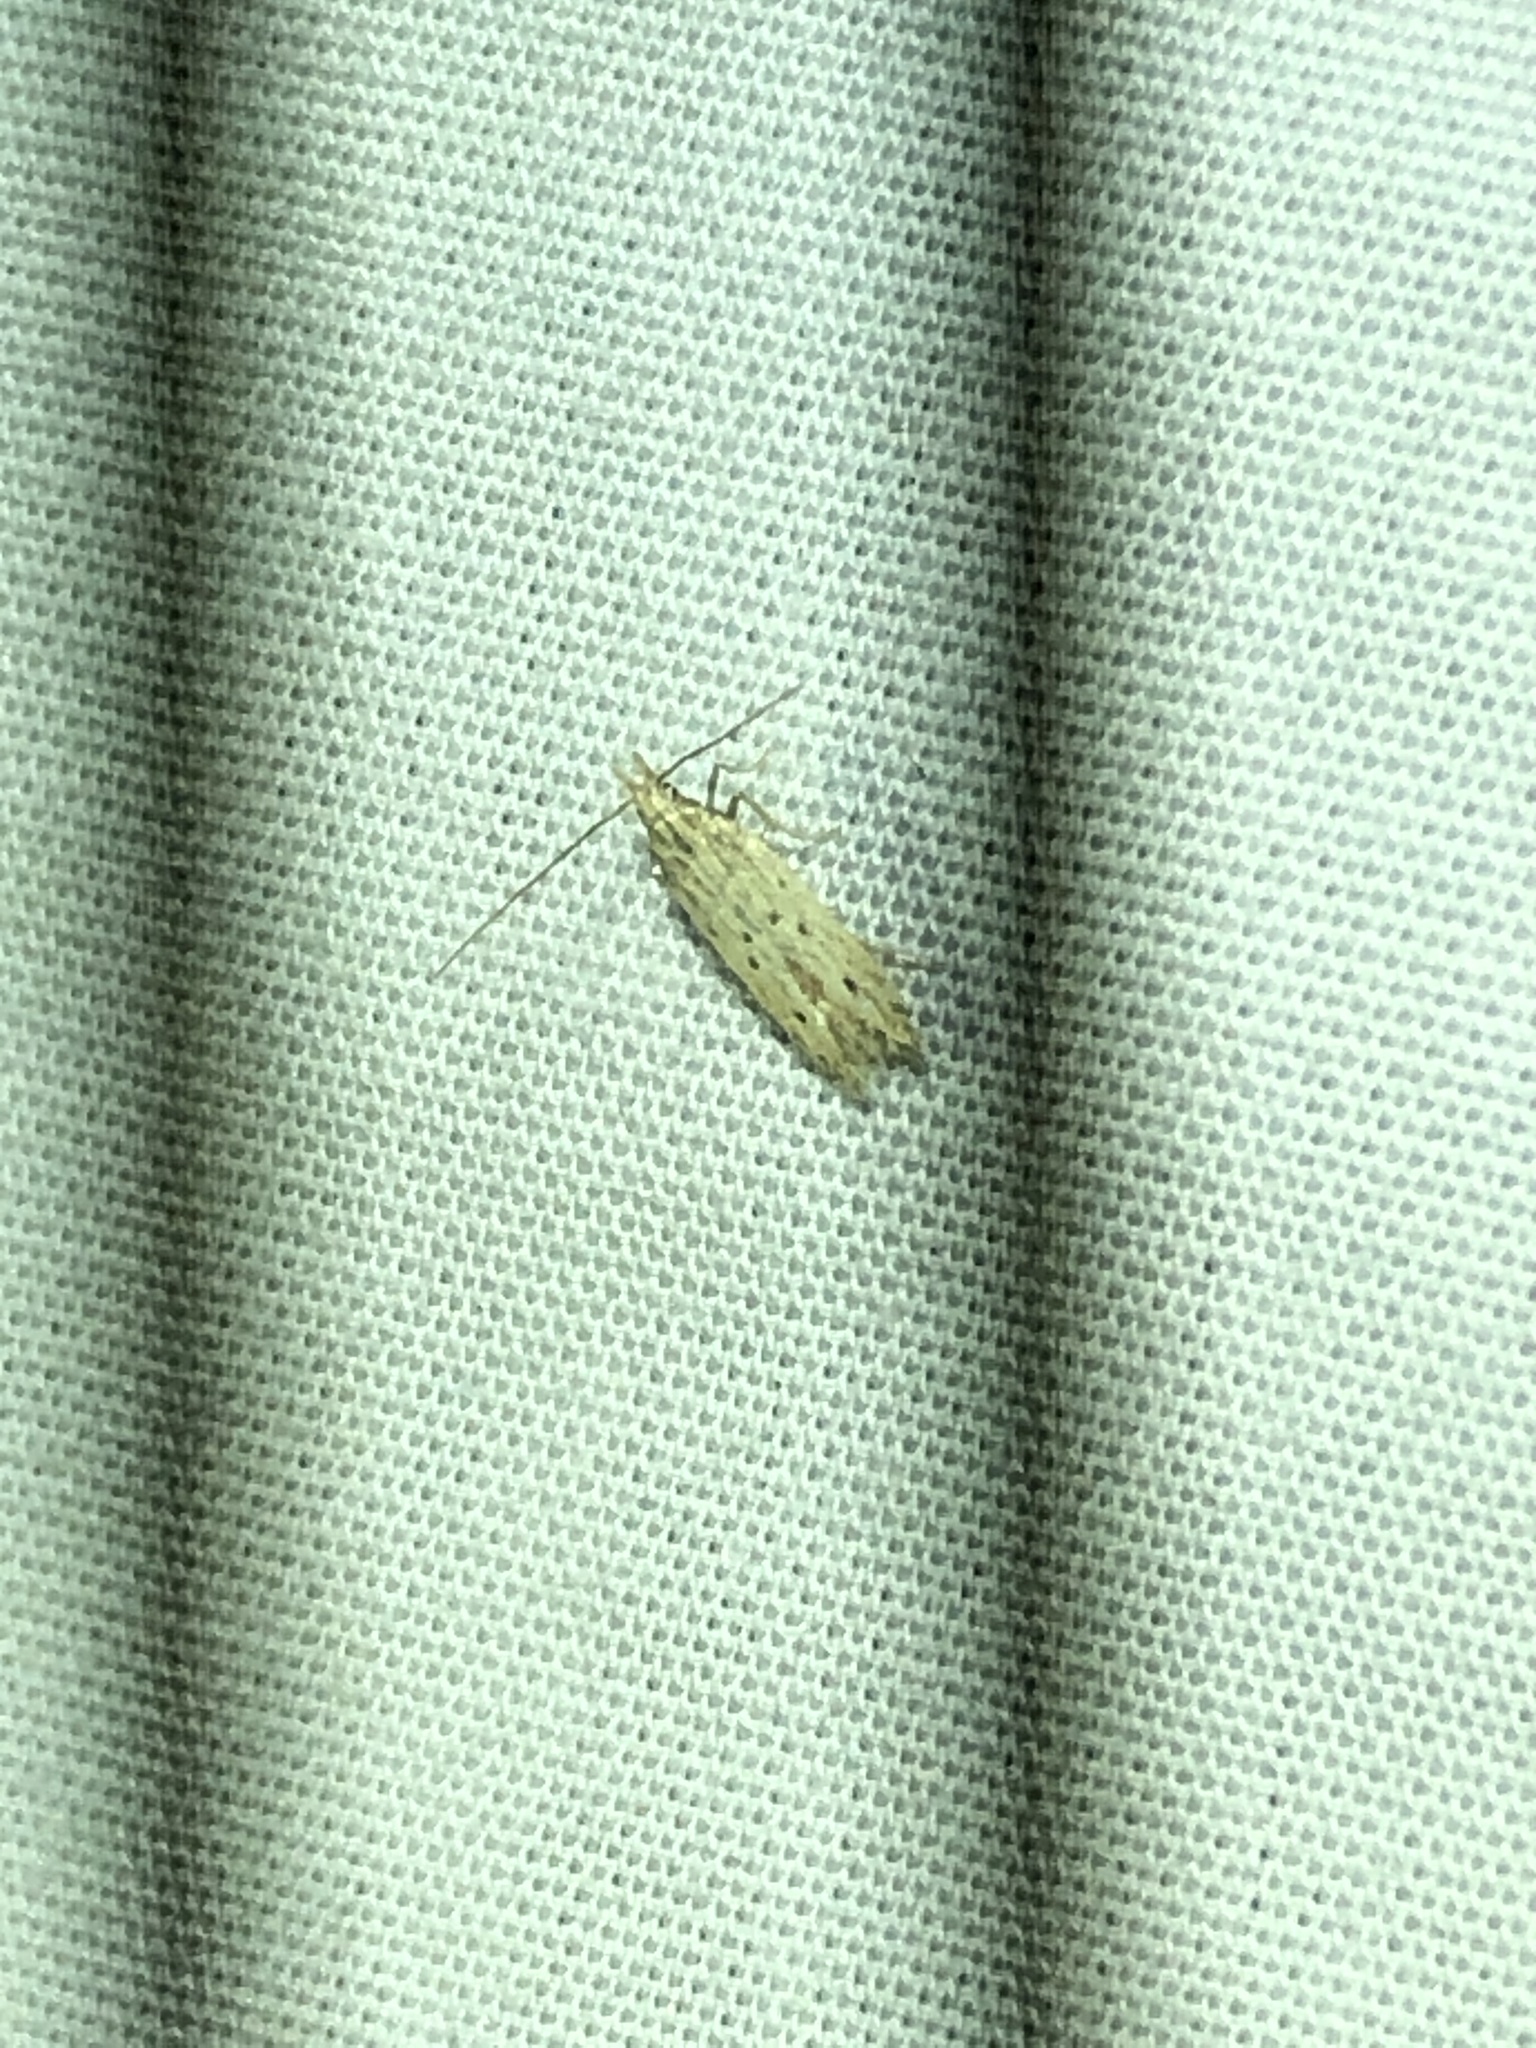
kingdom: Animalia
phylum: Arthropoda
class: Insecta
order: Lepidoptera
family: Gelechiidae
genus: Isophrictis
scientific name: Isophrictis trimaculella
